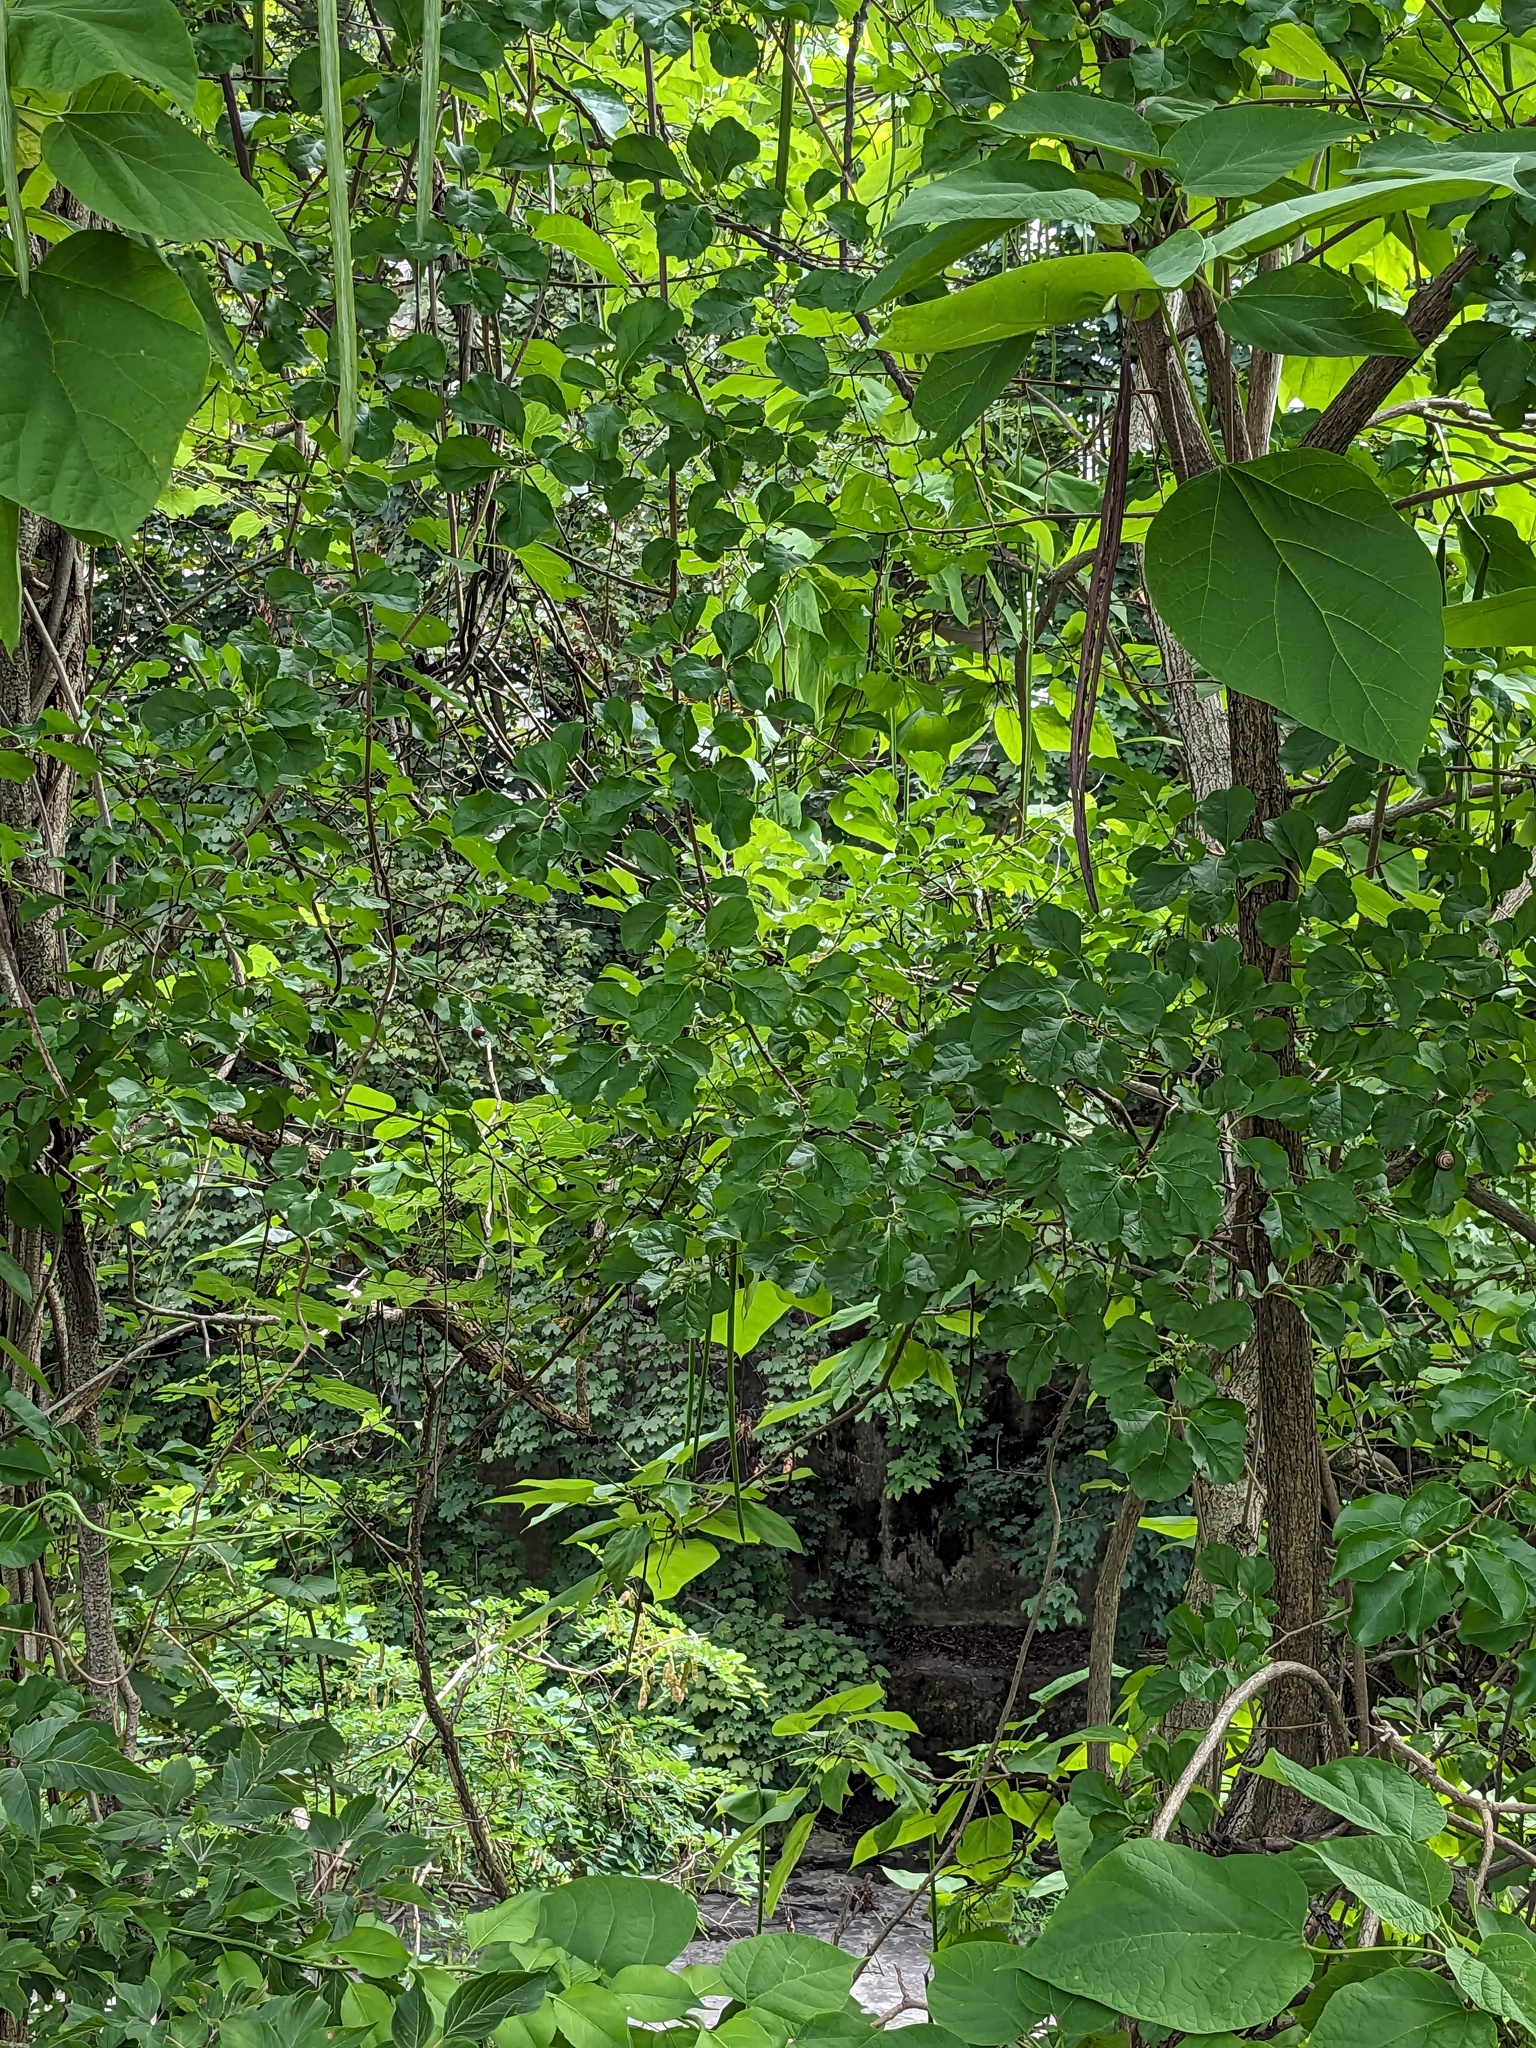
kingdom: Plantae
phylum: Tracheophyta
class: Magnoliopsida
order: Celastrales
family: Celastraceae
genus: Celastrus
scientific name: Celastrus orbiculatus
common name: Oriental bittersweet
